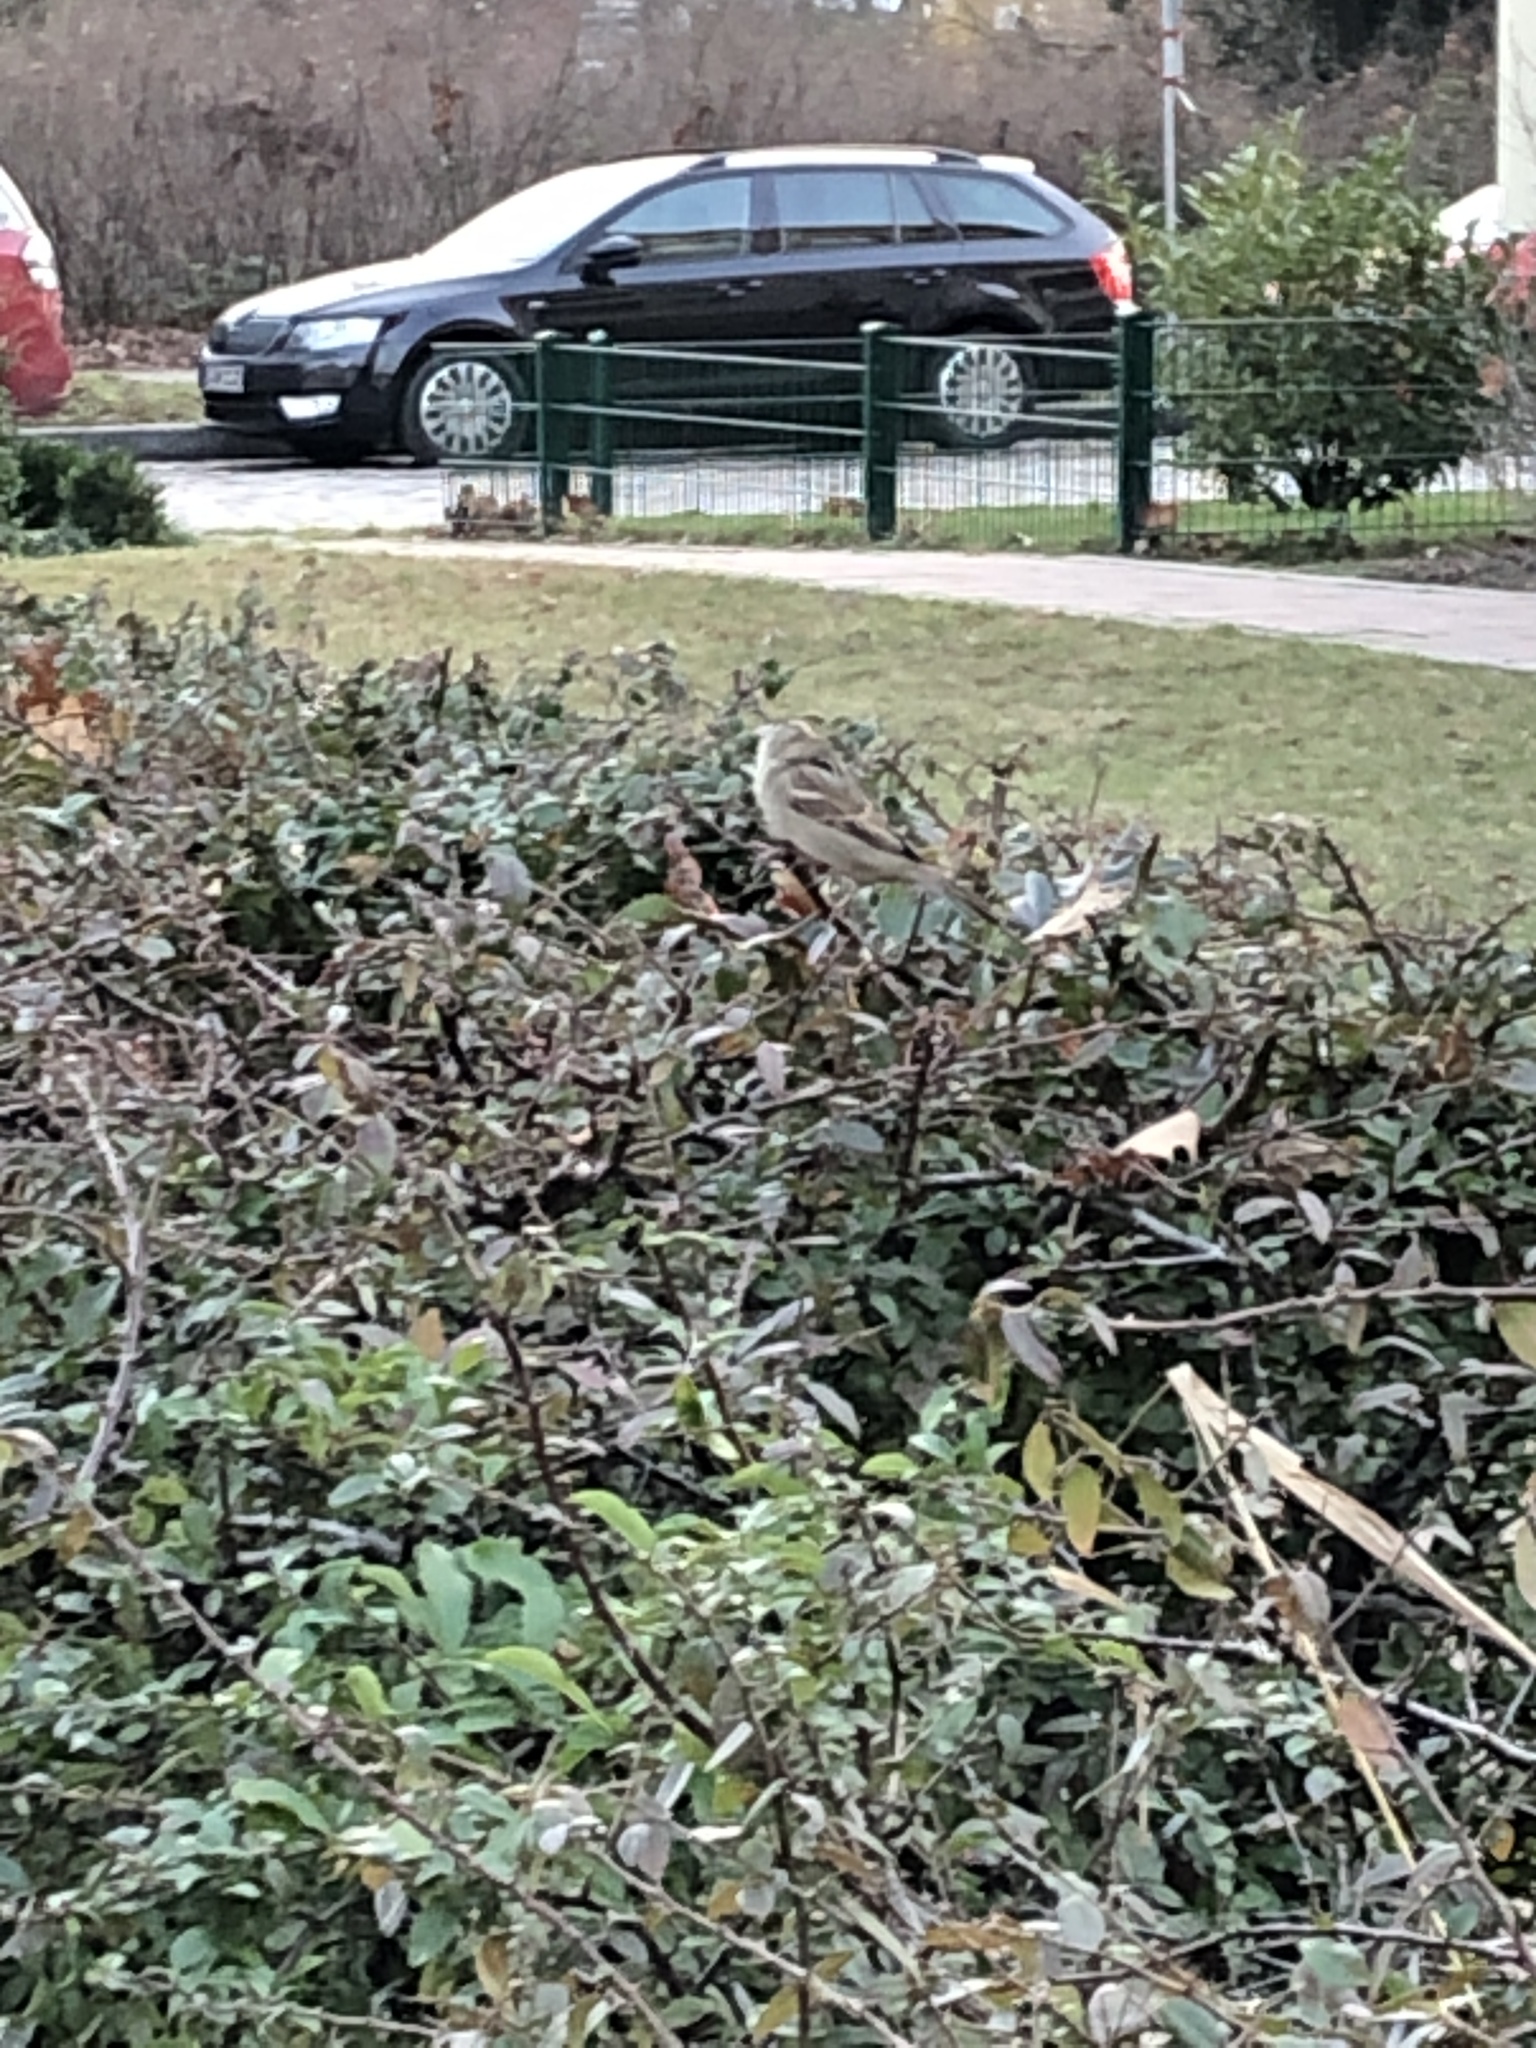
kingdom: Animalia
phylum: Chordata
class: Aves
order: Passeriformes
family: Passeridae
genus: Passer
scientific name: Passer domesticus
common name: House sparrow
